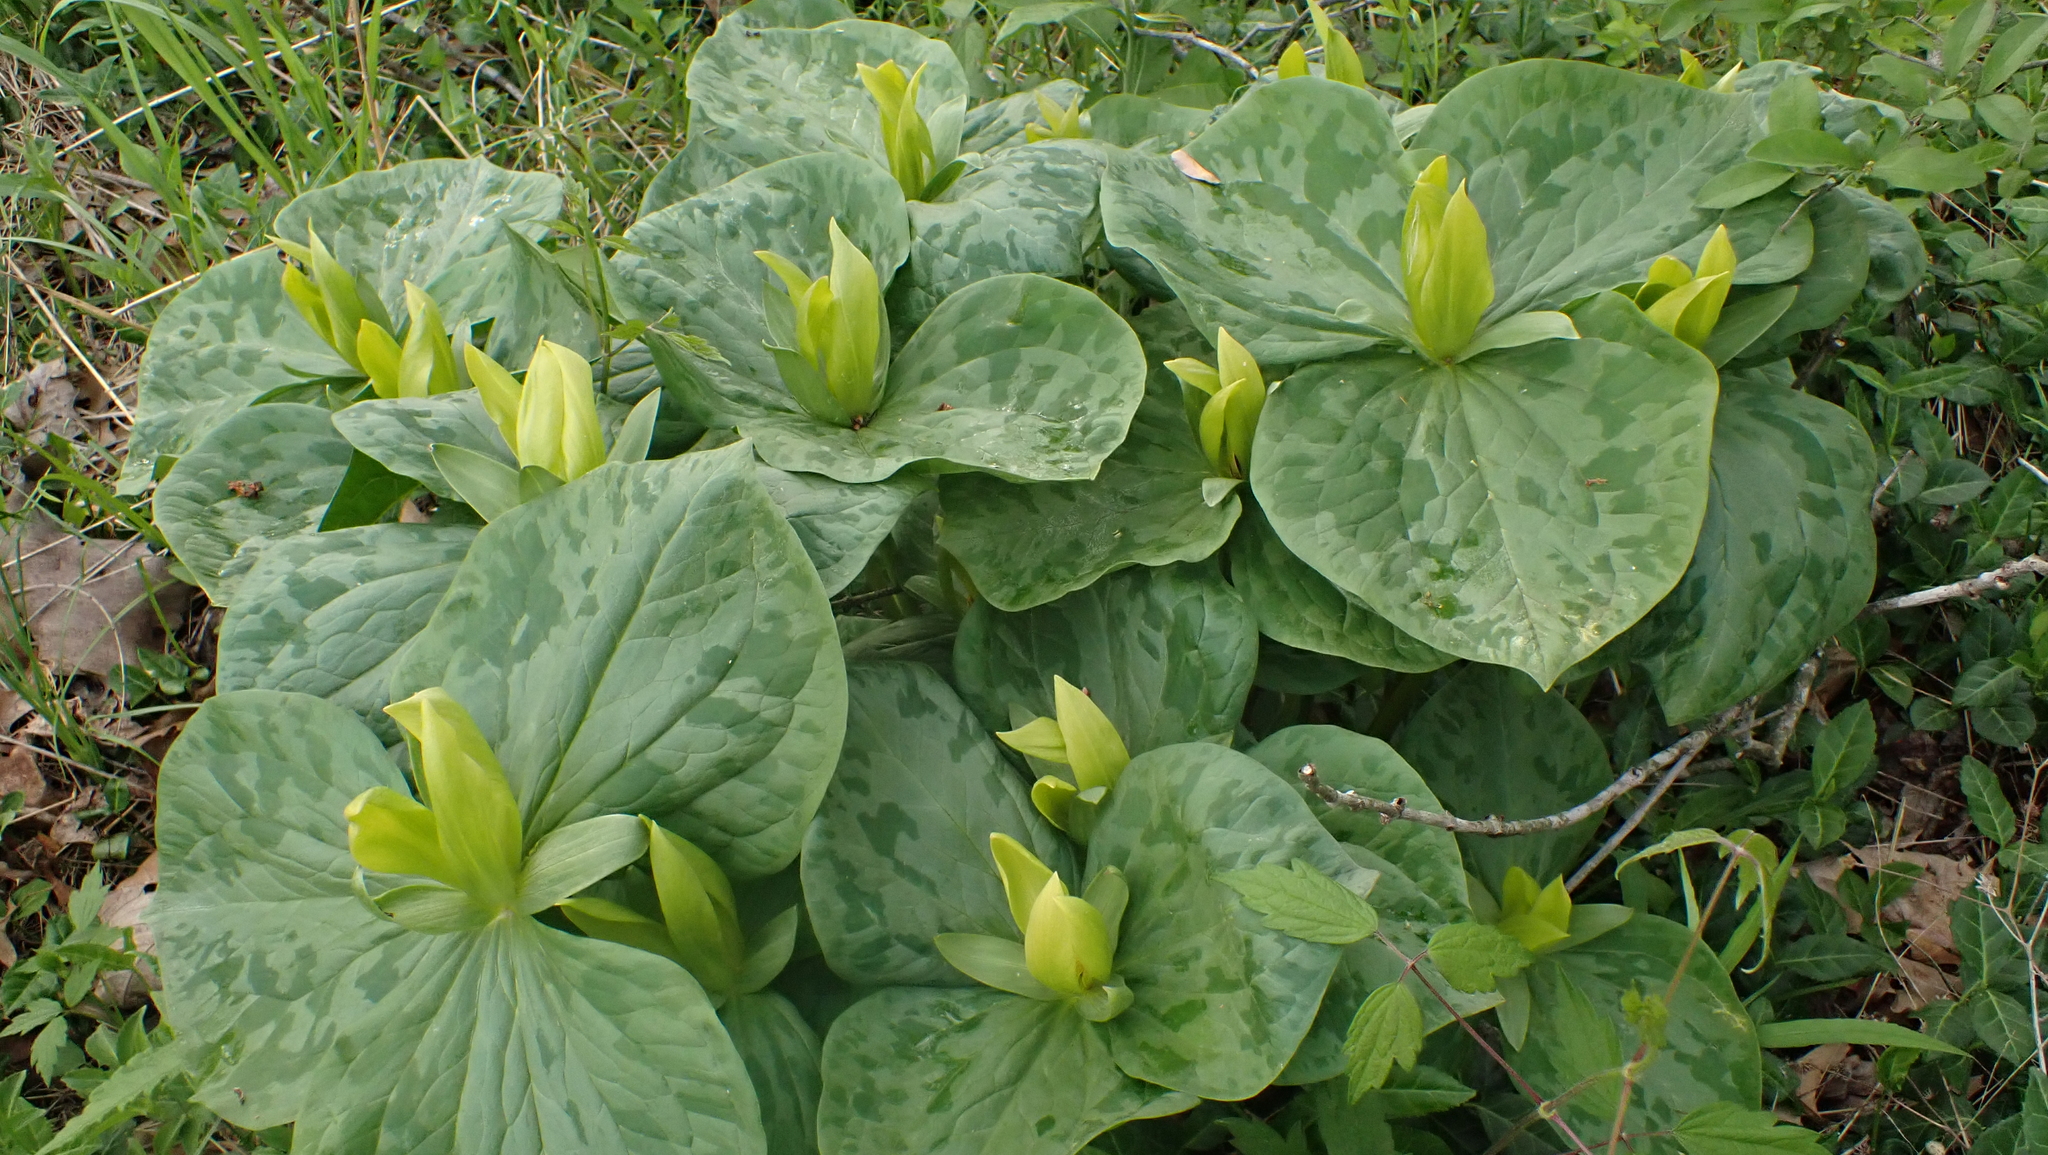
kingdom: Plantae
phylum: Tracheophyta
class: Liliopsida
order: Liliales
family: Melanthiaceae
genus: Trillium
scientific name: Trillium luteum
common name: Wax trillium
